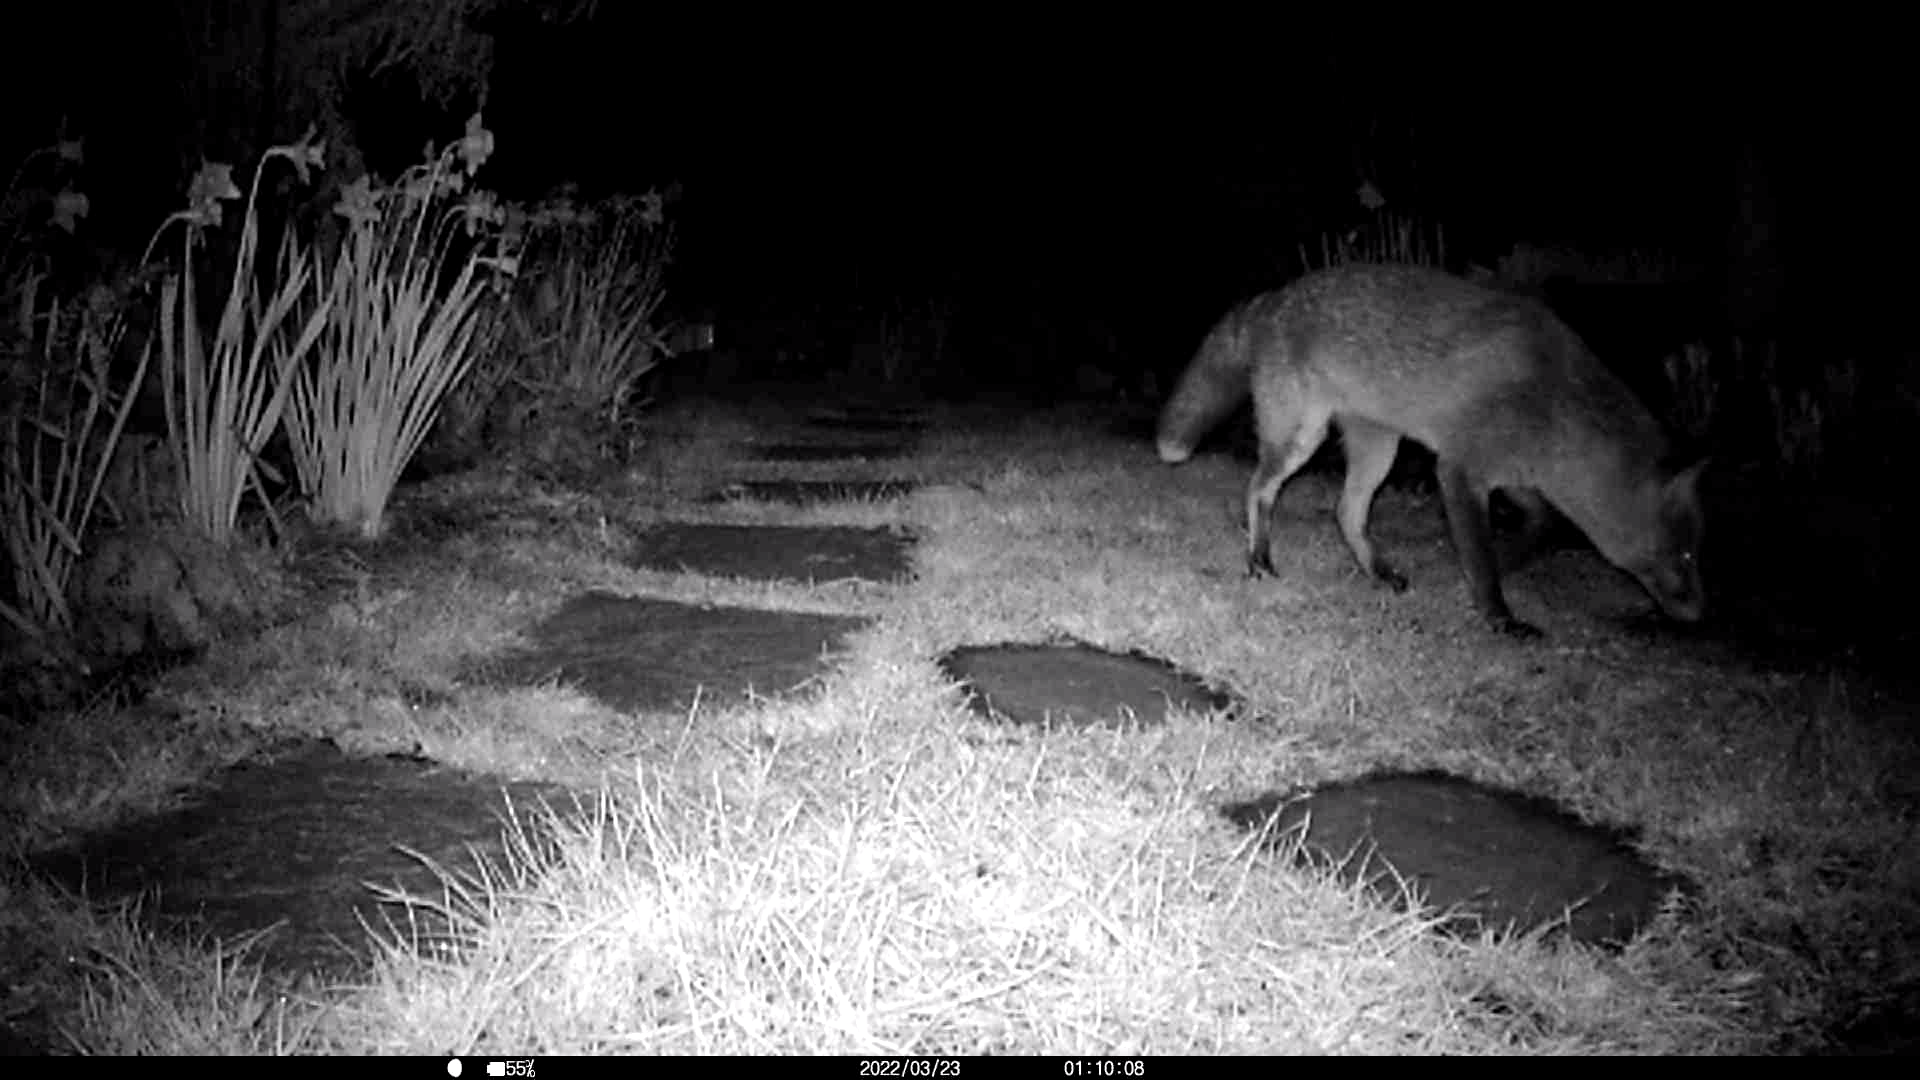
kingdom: Animalia
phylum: Chordata
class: Mammalia
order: Carnivora
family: Canidae
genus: Vulpes
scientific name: Vulpes vulpes
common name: Red fox
